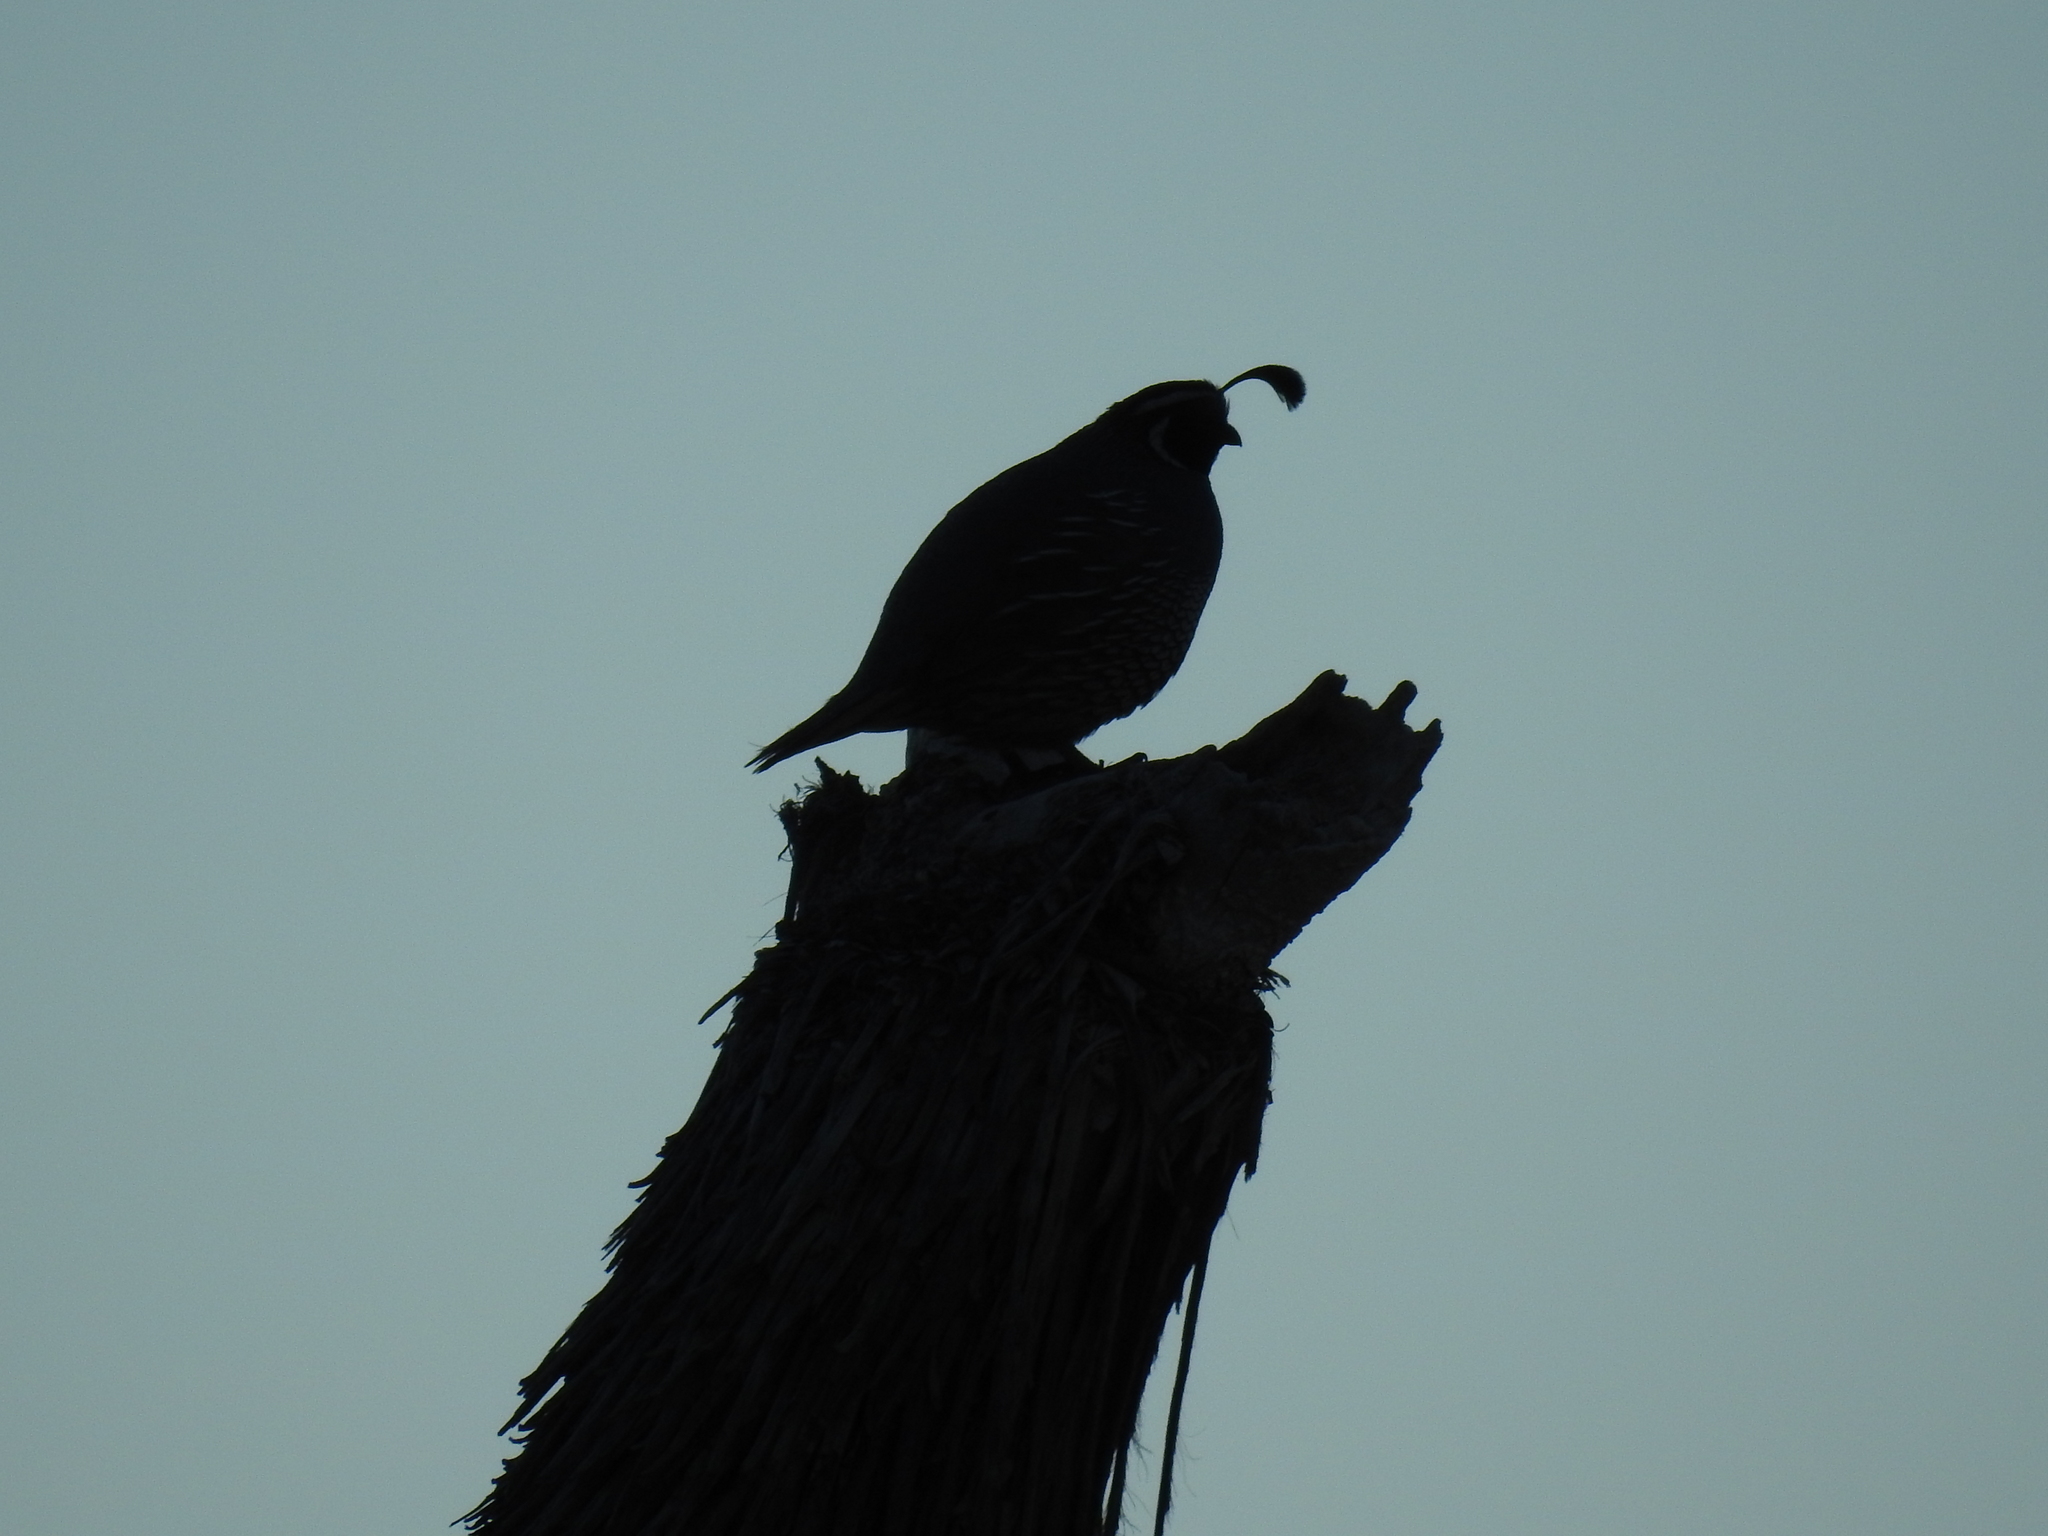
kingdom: Animalia
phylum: Chordata
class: Aves
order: Galliformes
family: Odontophoridae
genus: Callipepla
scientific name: Callipepla californica
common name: California quail
